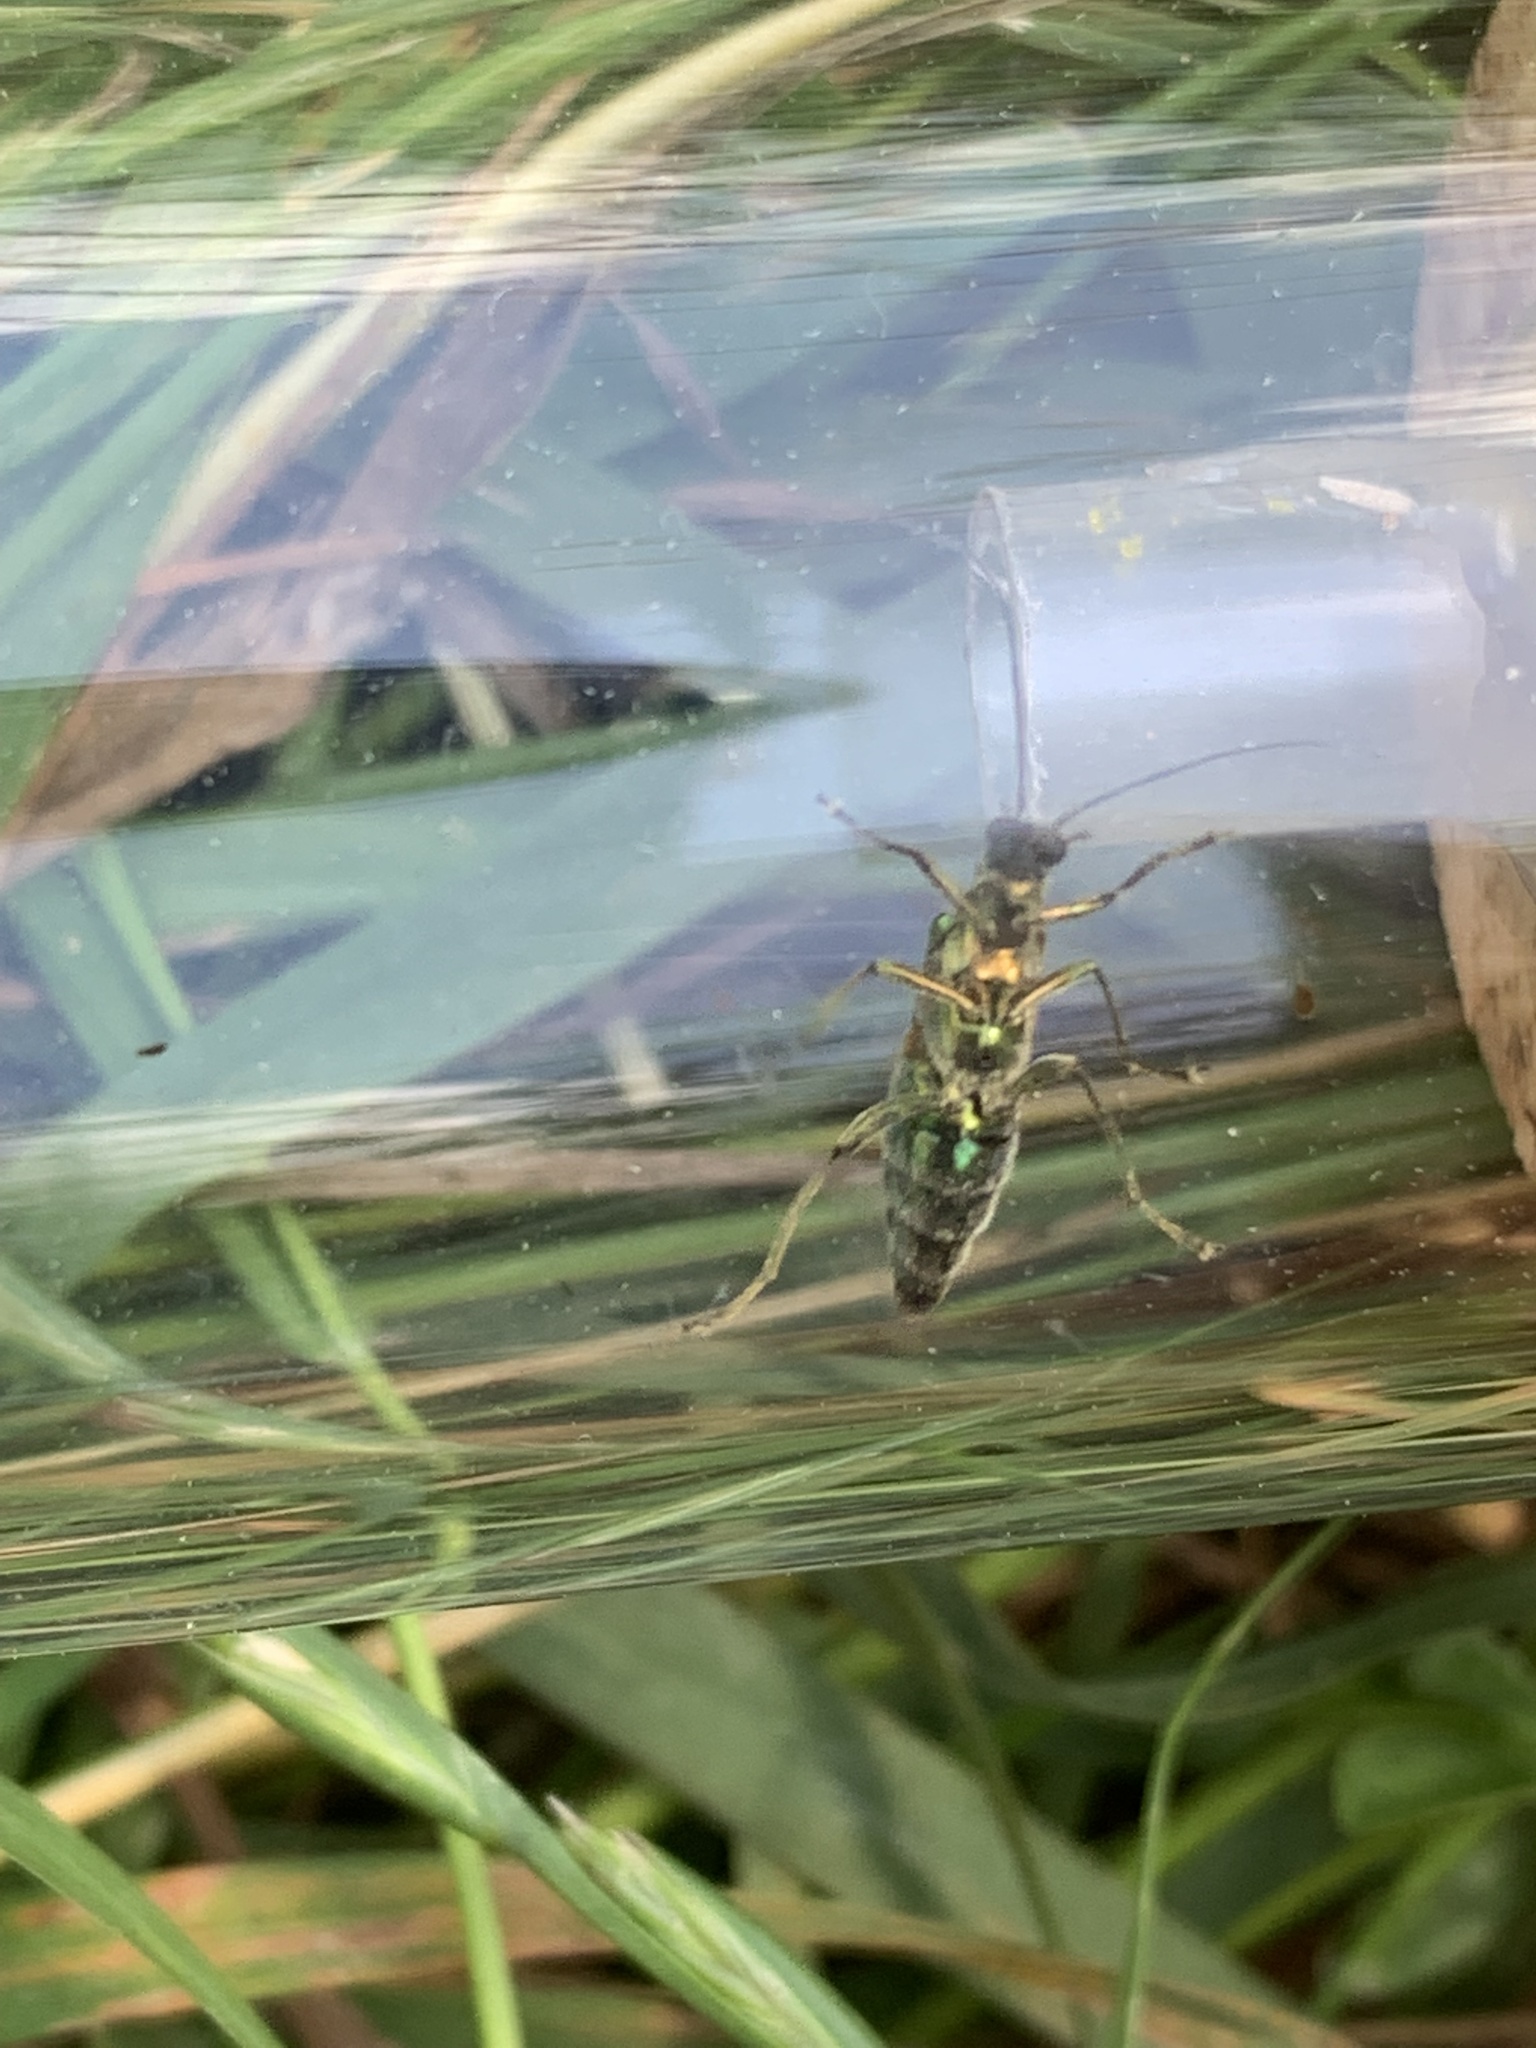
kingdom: Animalia
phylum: Arthropoda
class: Insecta
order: Coleoptera
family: Oedemeridae
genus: Oedemera
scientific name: Oedemera nobilis
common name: Swollen-thighed beetle
